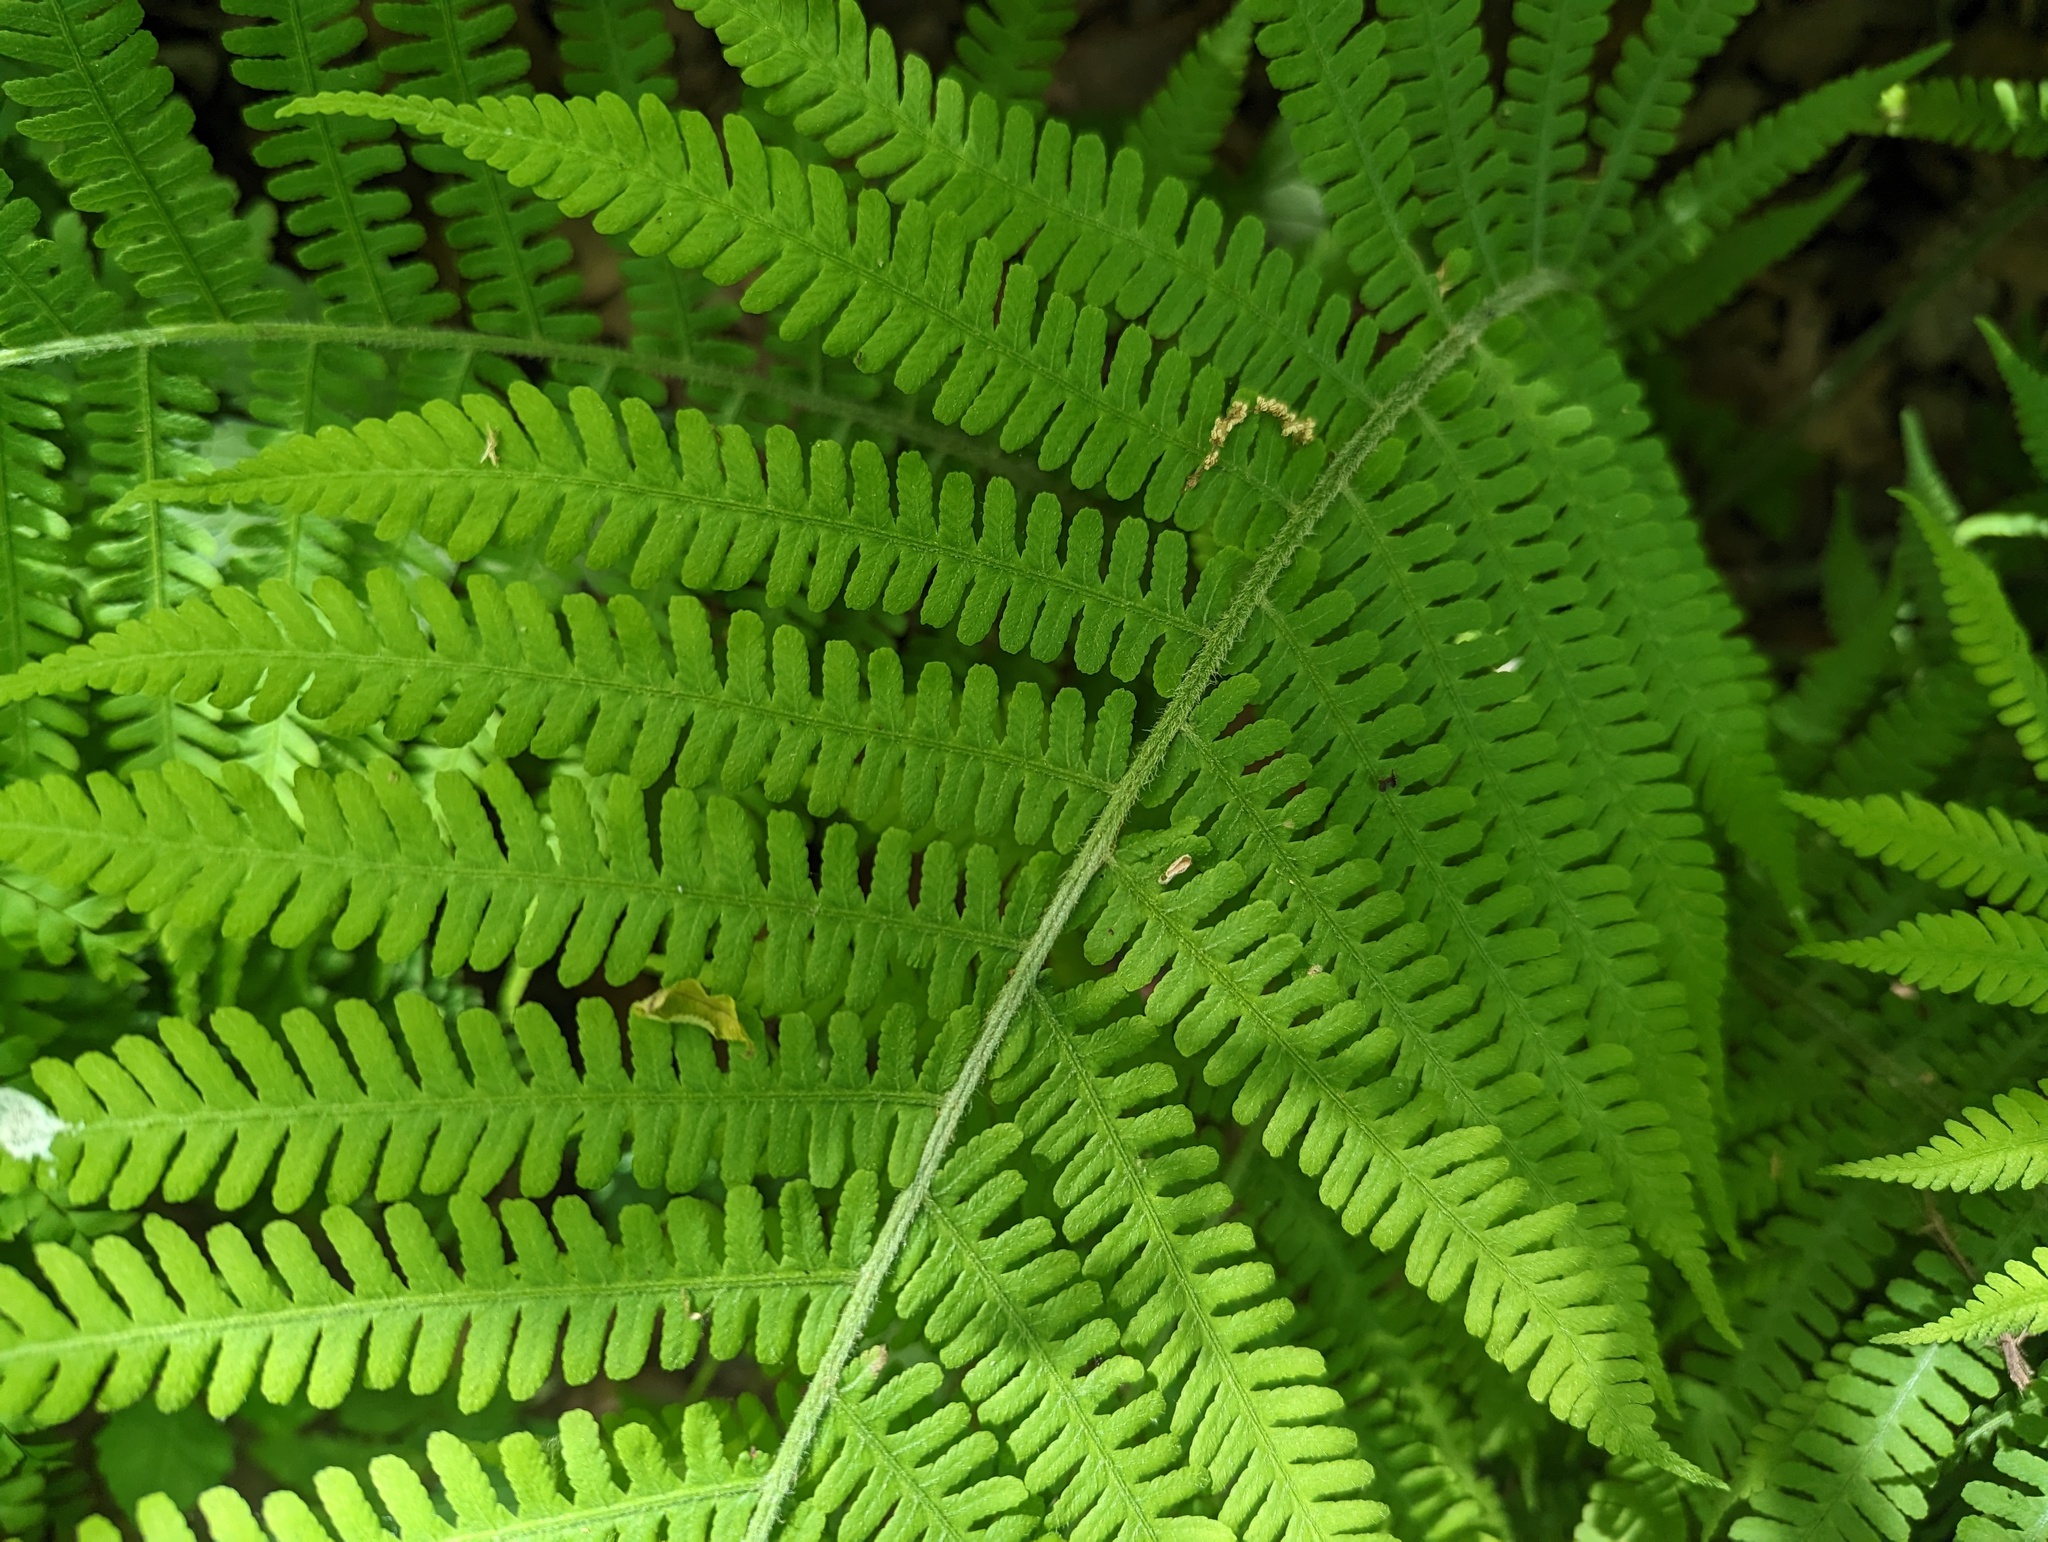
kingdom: Plantae
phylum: Tracheophyta
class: Polypodiopsida
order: Polypodiales
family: Athyriaceae
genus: Deparia
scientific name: Deparia acrostichoides
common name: Silver false spleenwort
